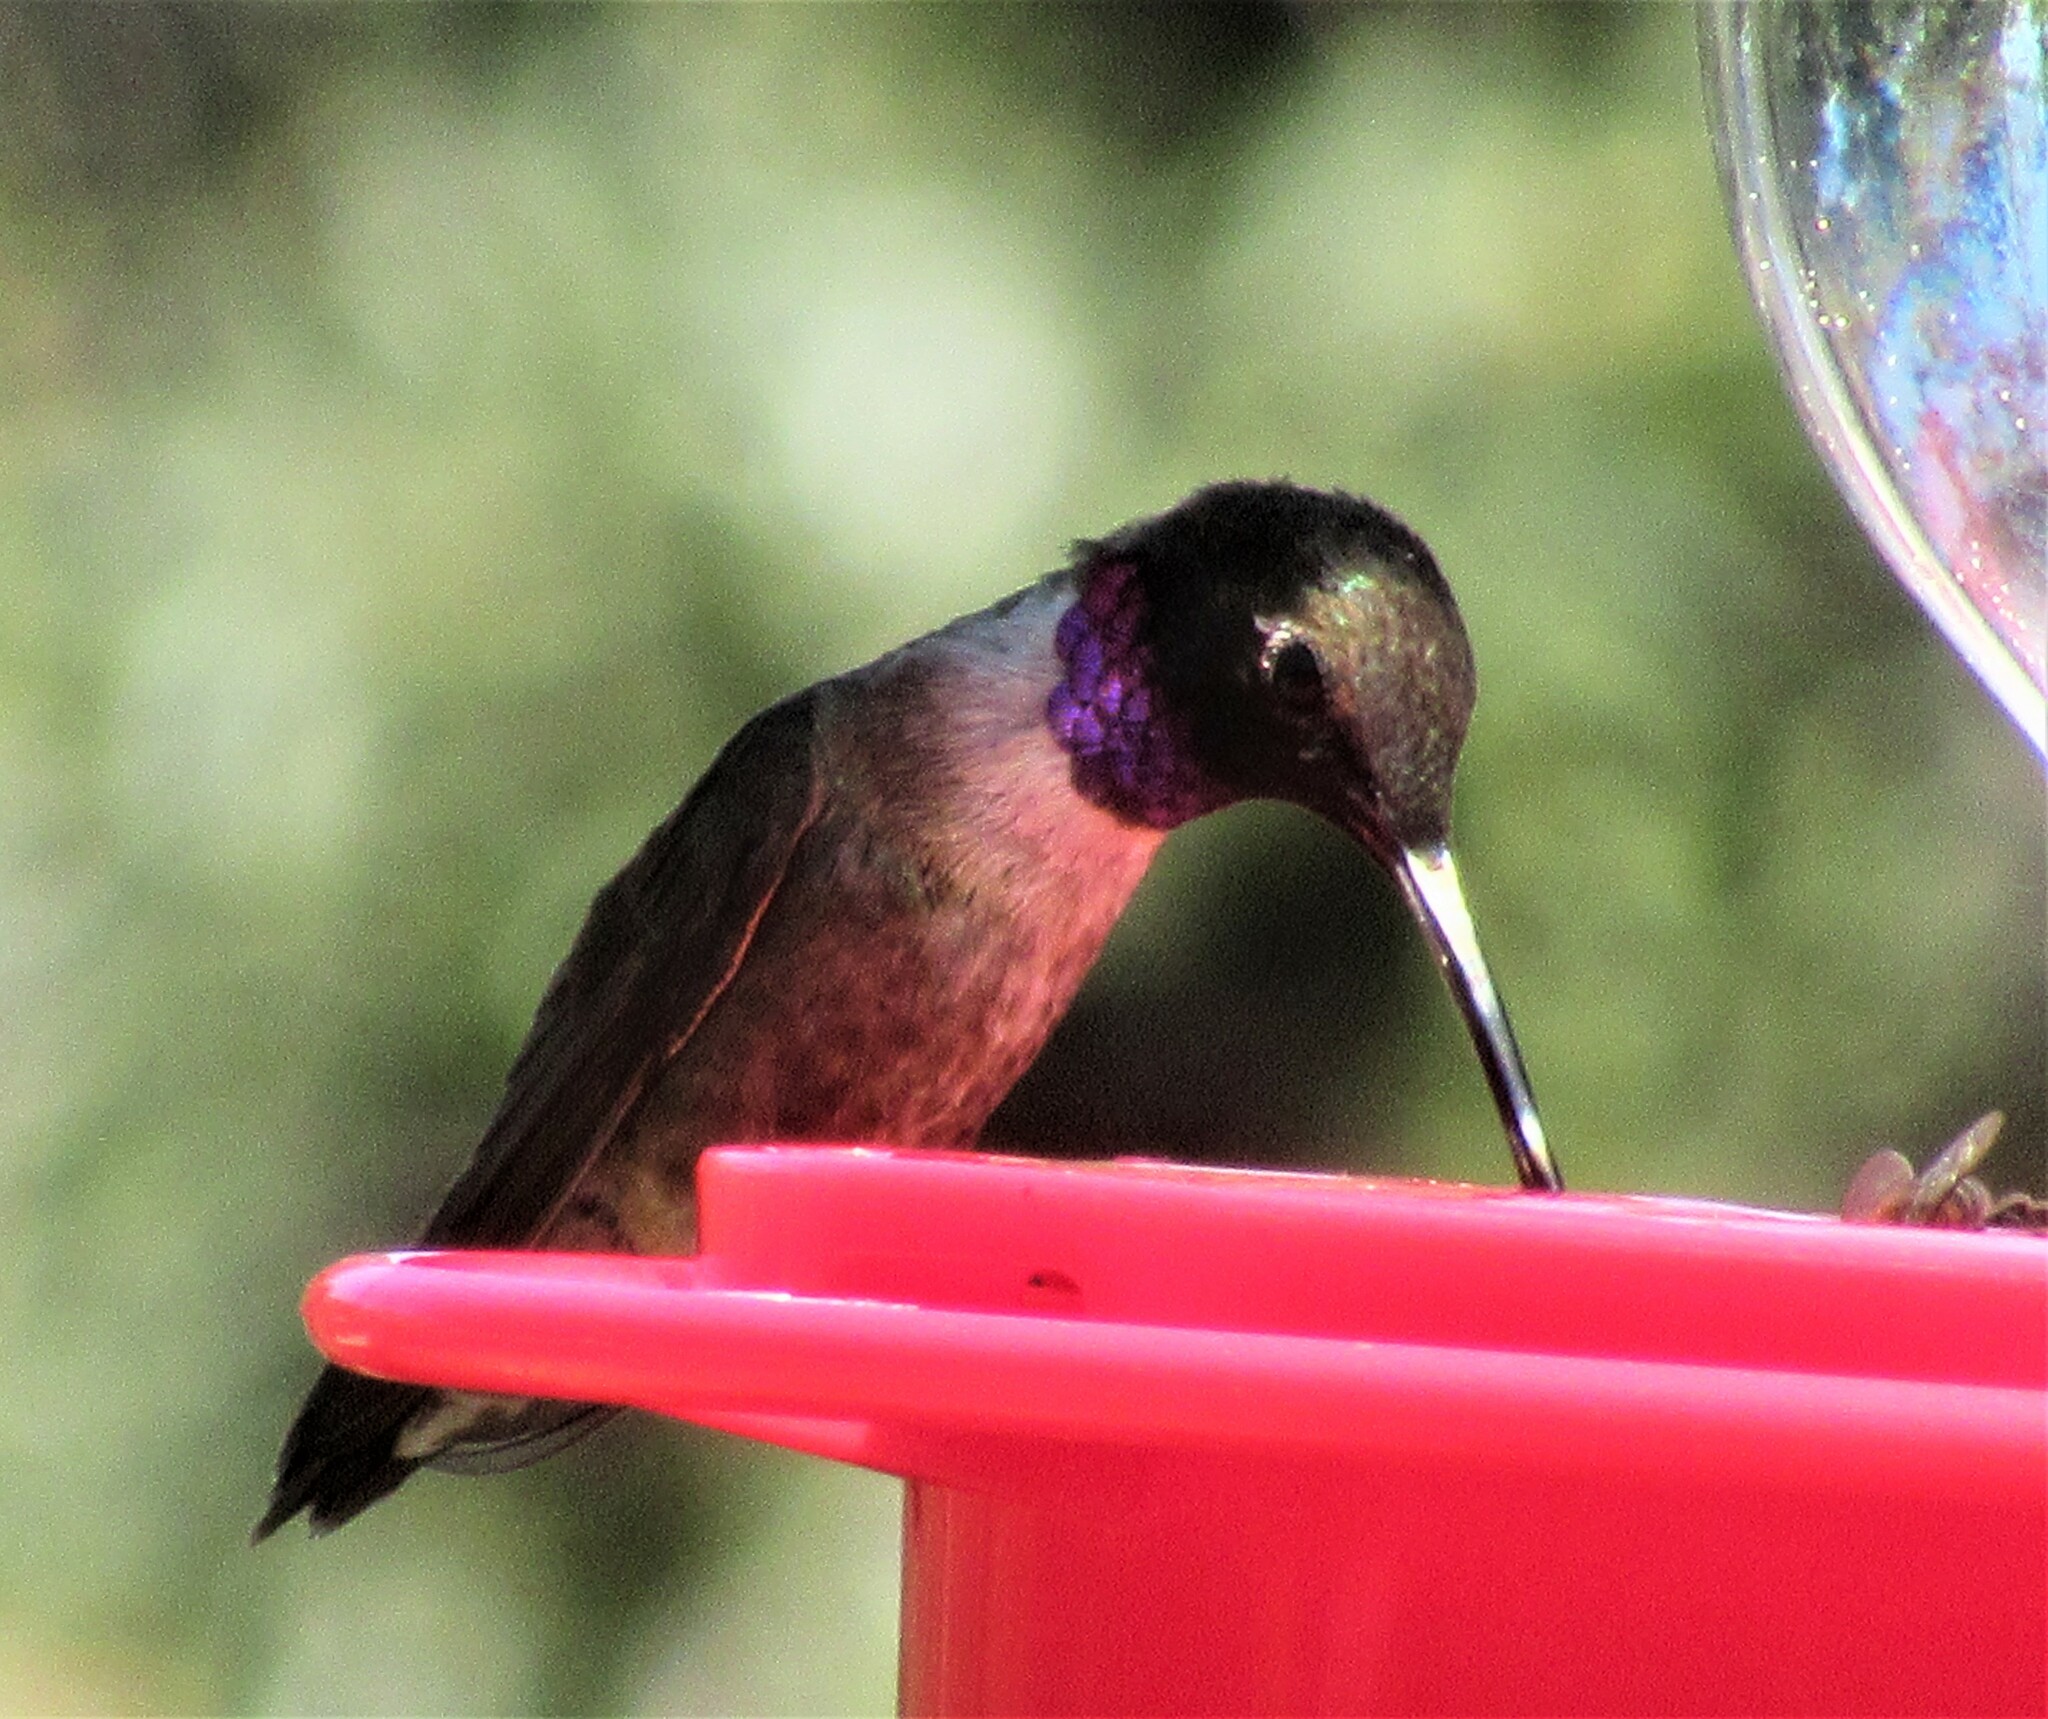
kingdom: Animalia
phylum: Chordata
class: Aves
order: Apodiformes
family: Trochilidae
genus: Archilochus
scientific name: Archilochus alexandri
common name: Black-chinned hummingbird
